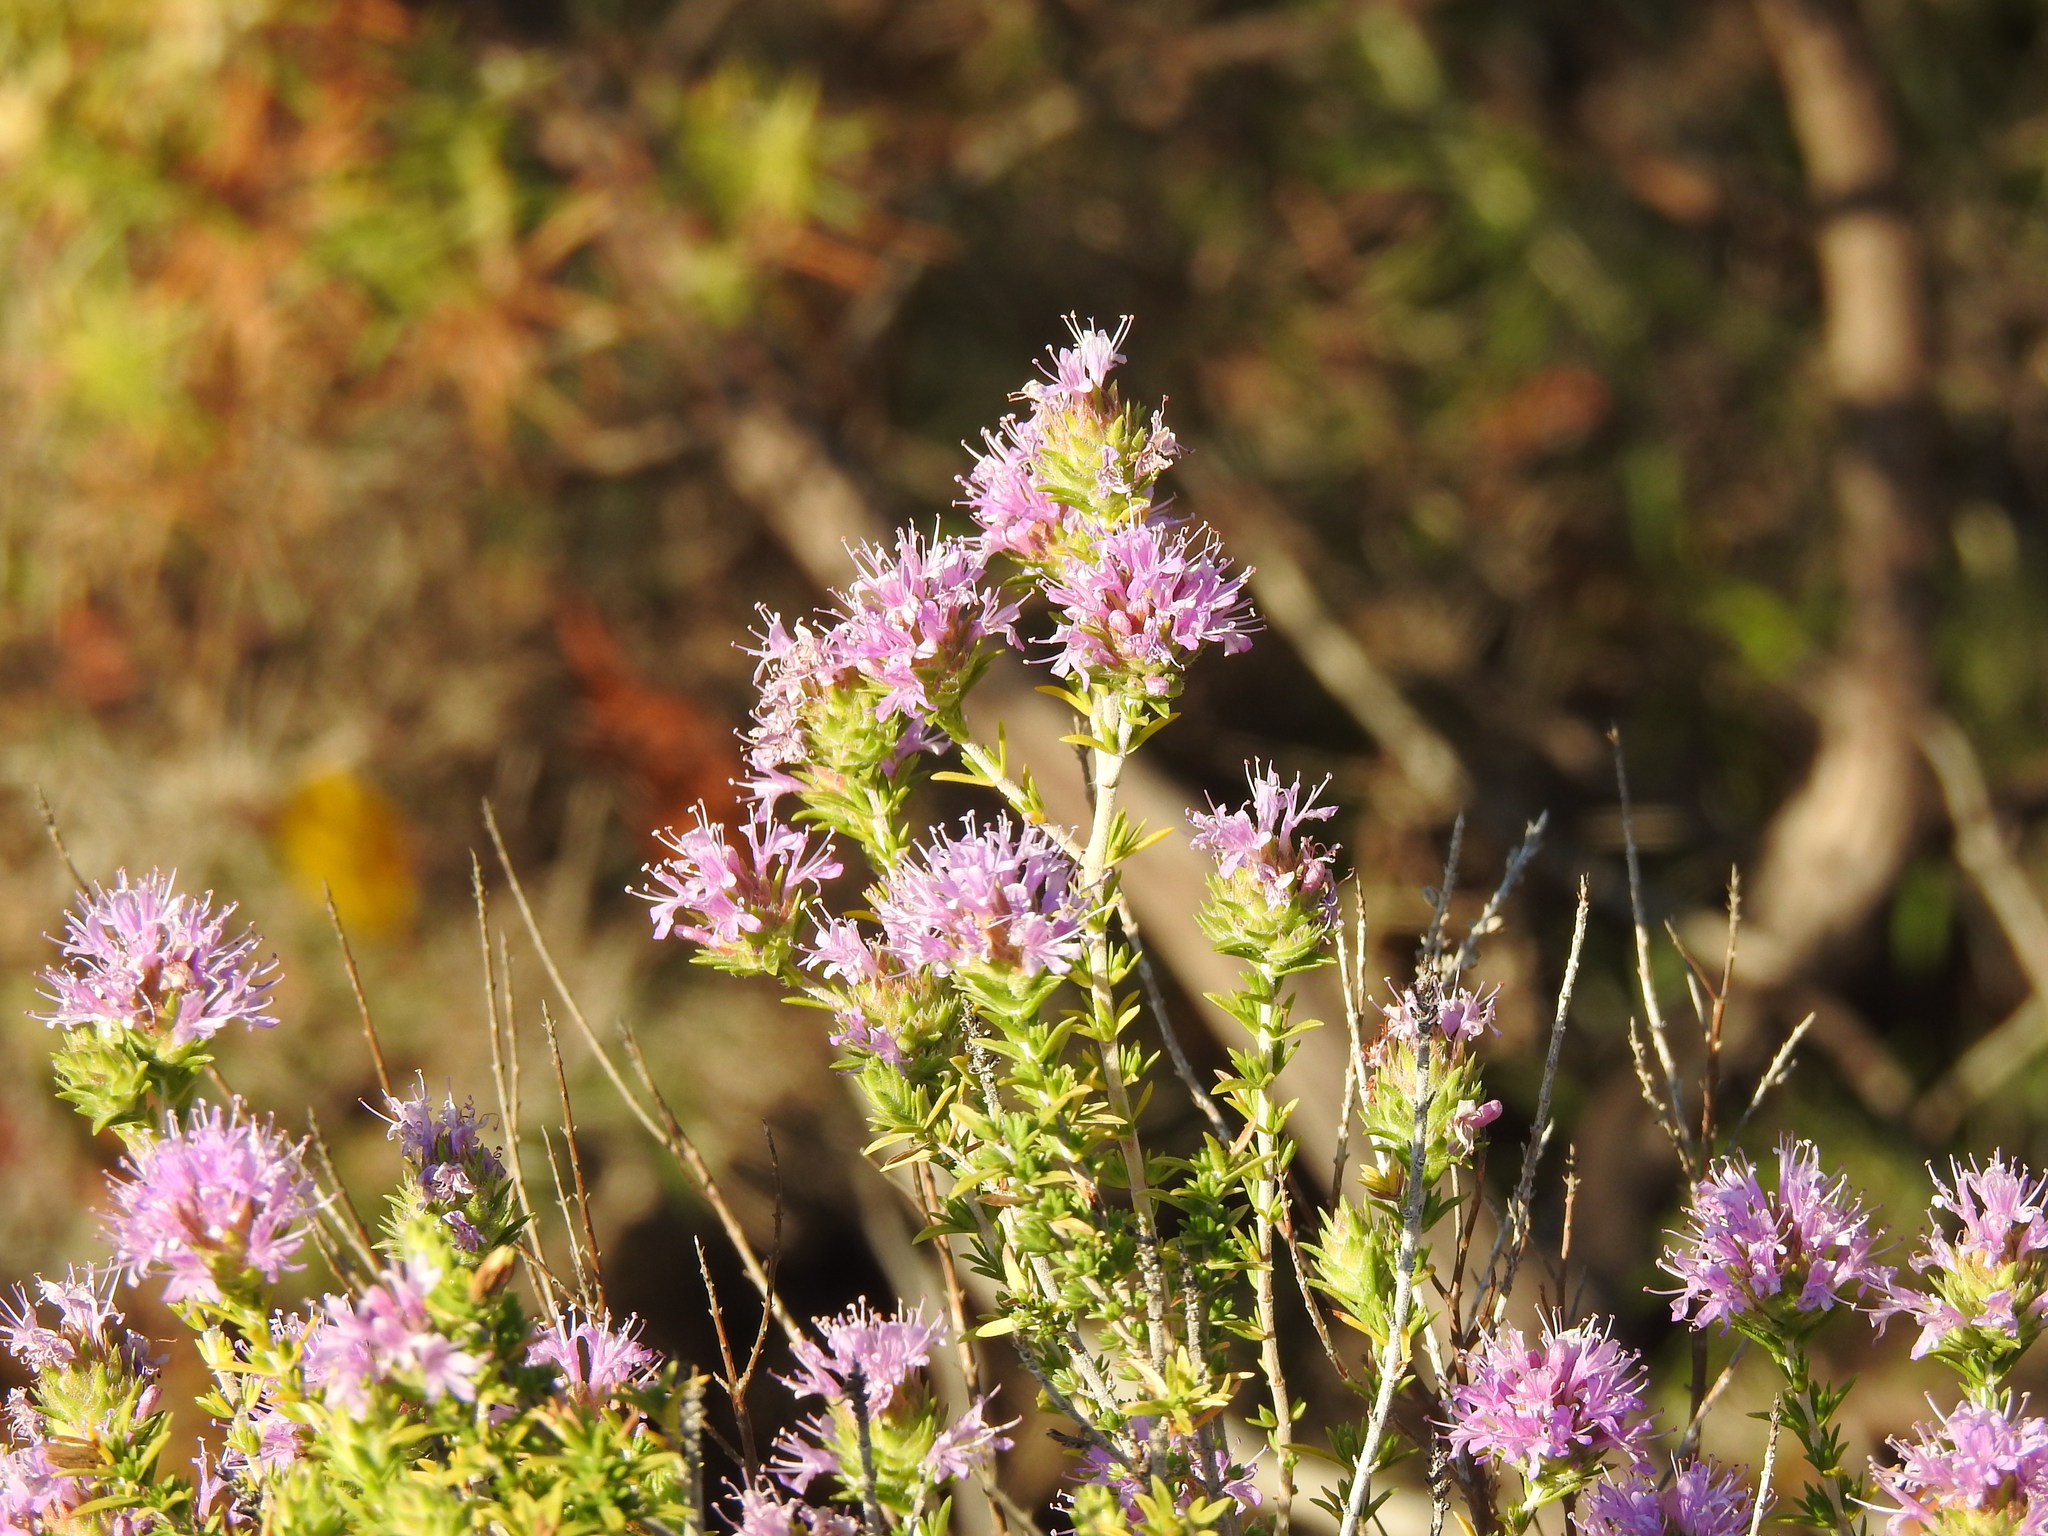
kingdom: Plantae
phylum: Tracheophyta
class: Magnoliopsida
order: Lamiales
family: Lamiaceae
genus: Thymbra
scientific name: Thymbra capitata
